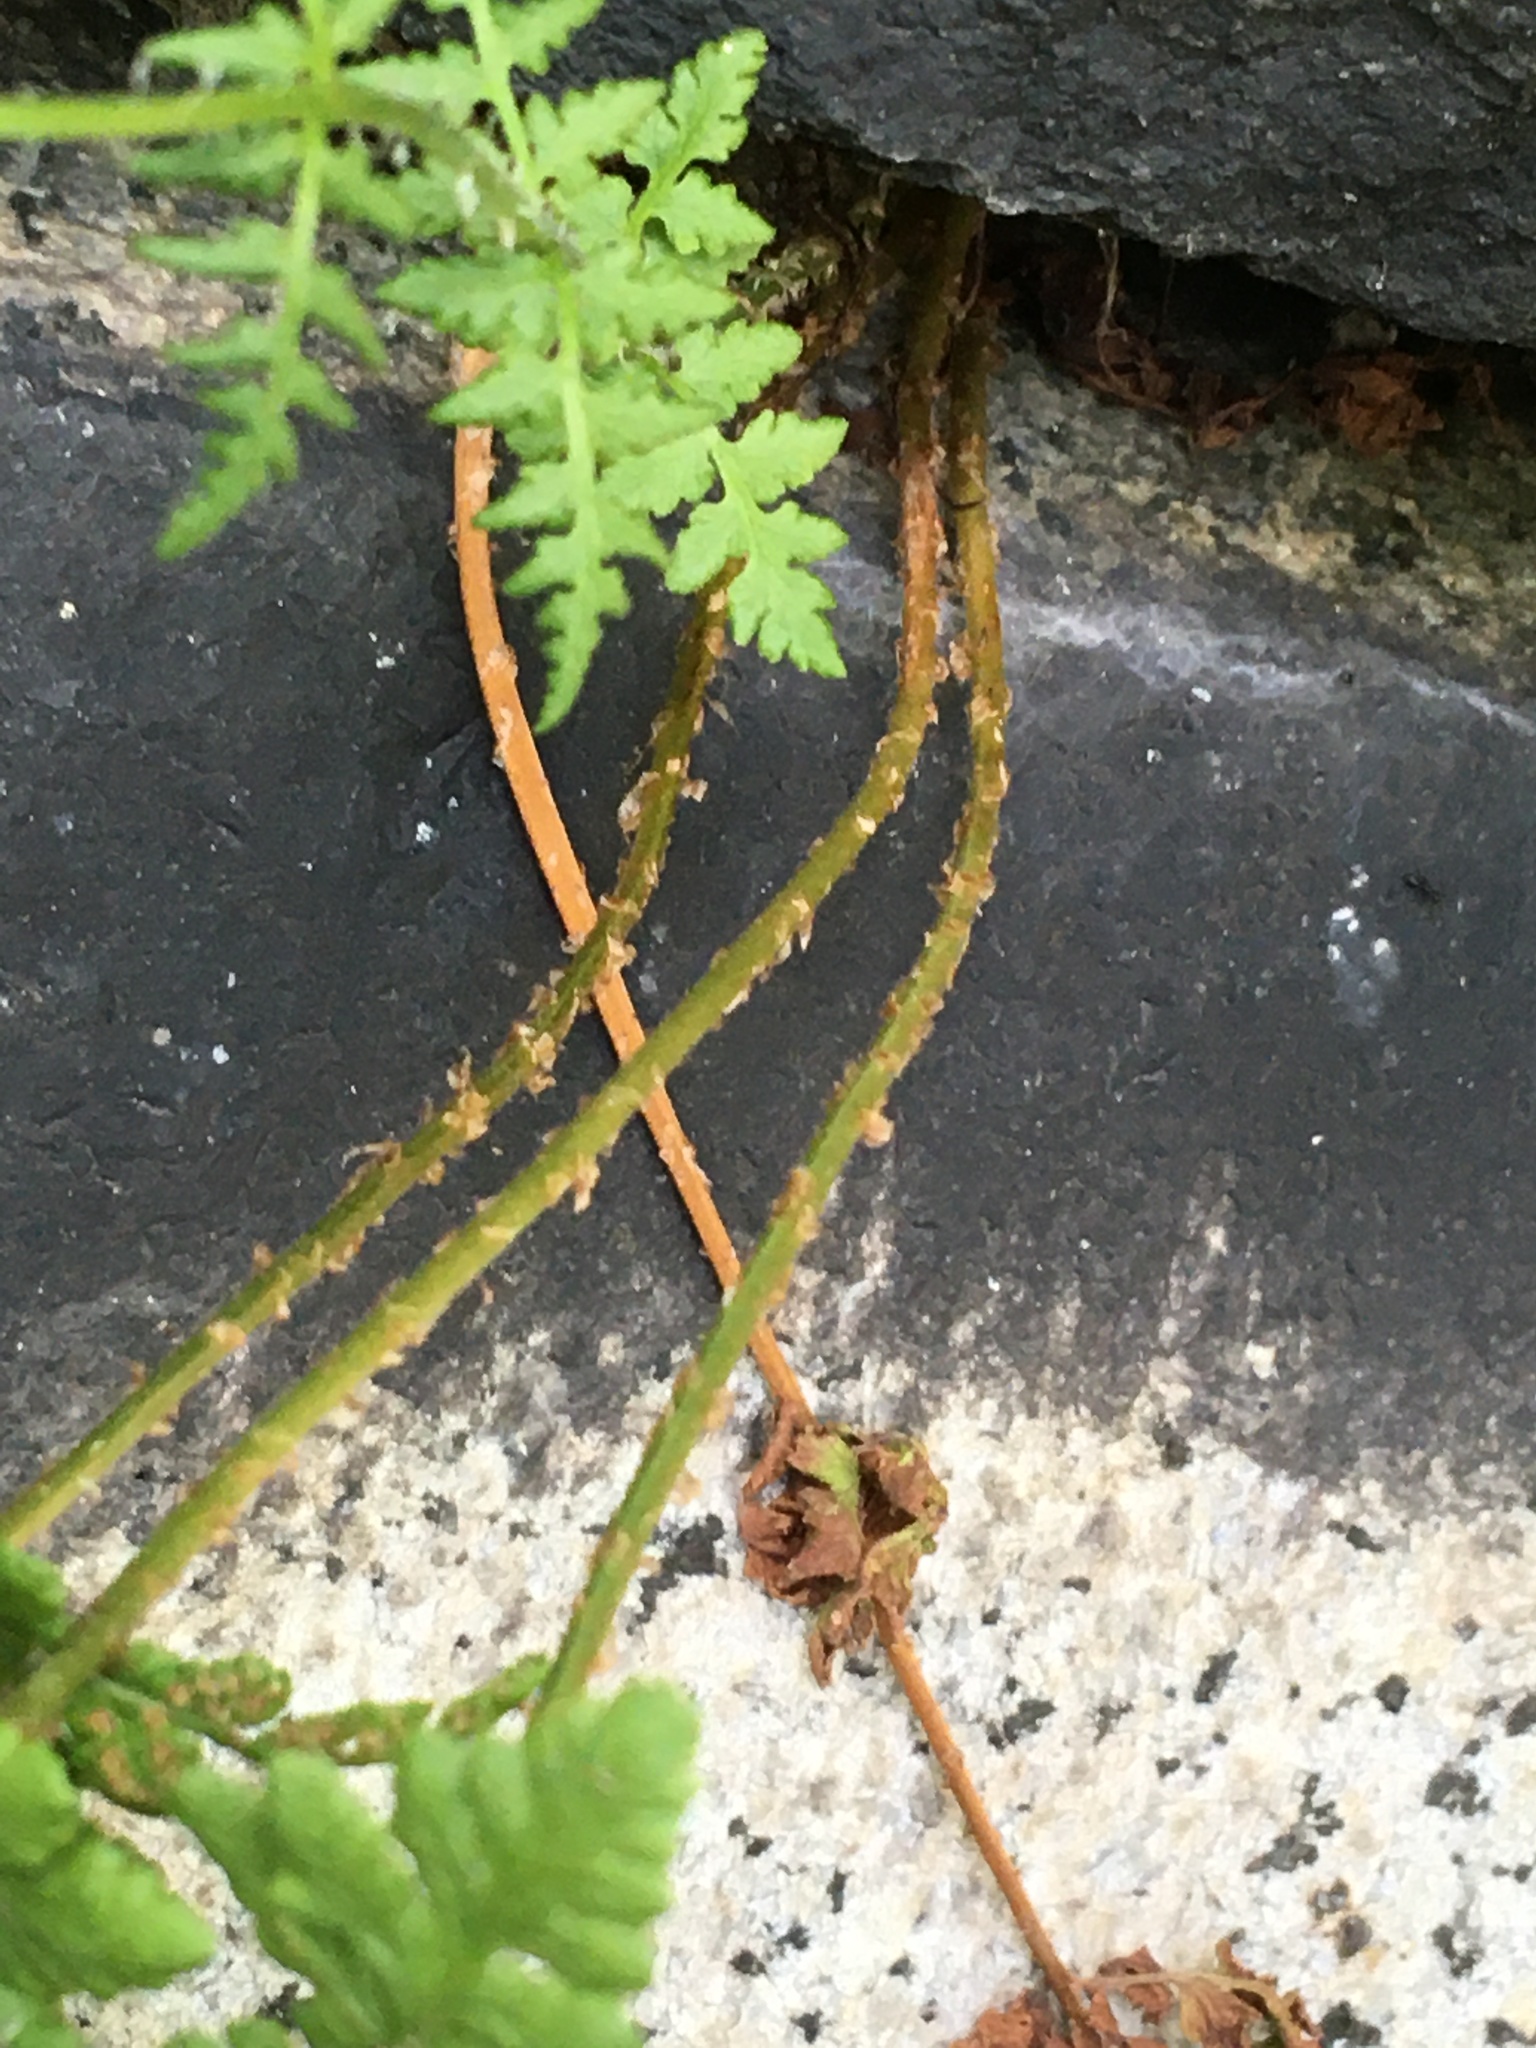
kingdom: Plantae
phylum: Tracheophyta
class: Polypodiopsida
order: Polypodiales
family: Woodsiaceae
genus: Physematium
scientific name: Physematium obtusum
